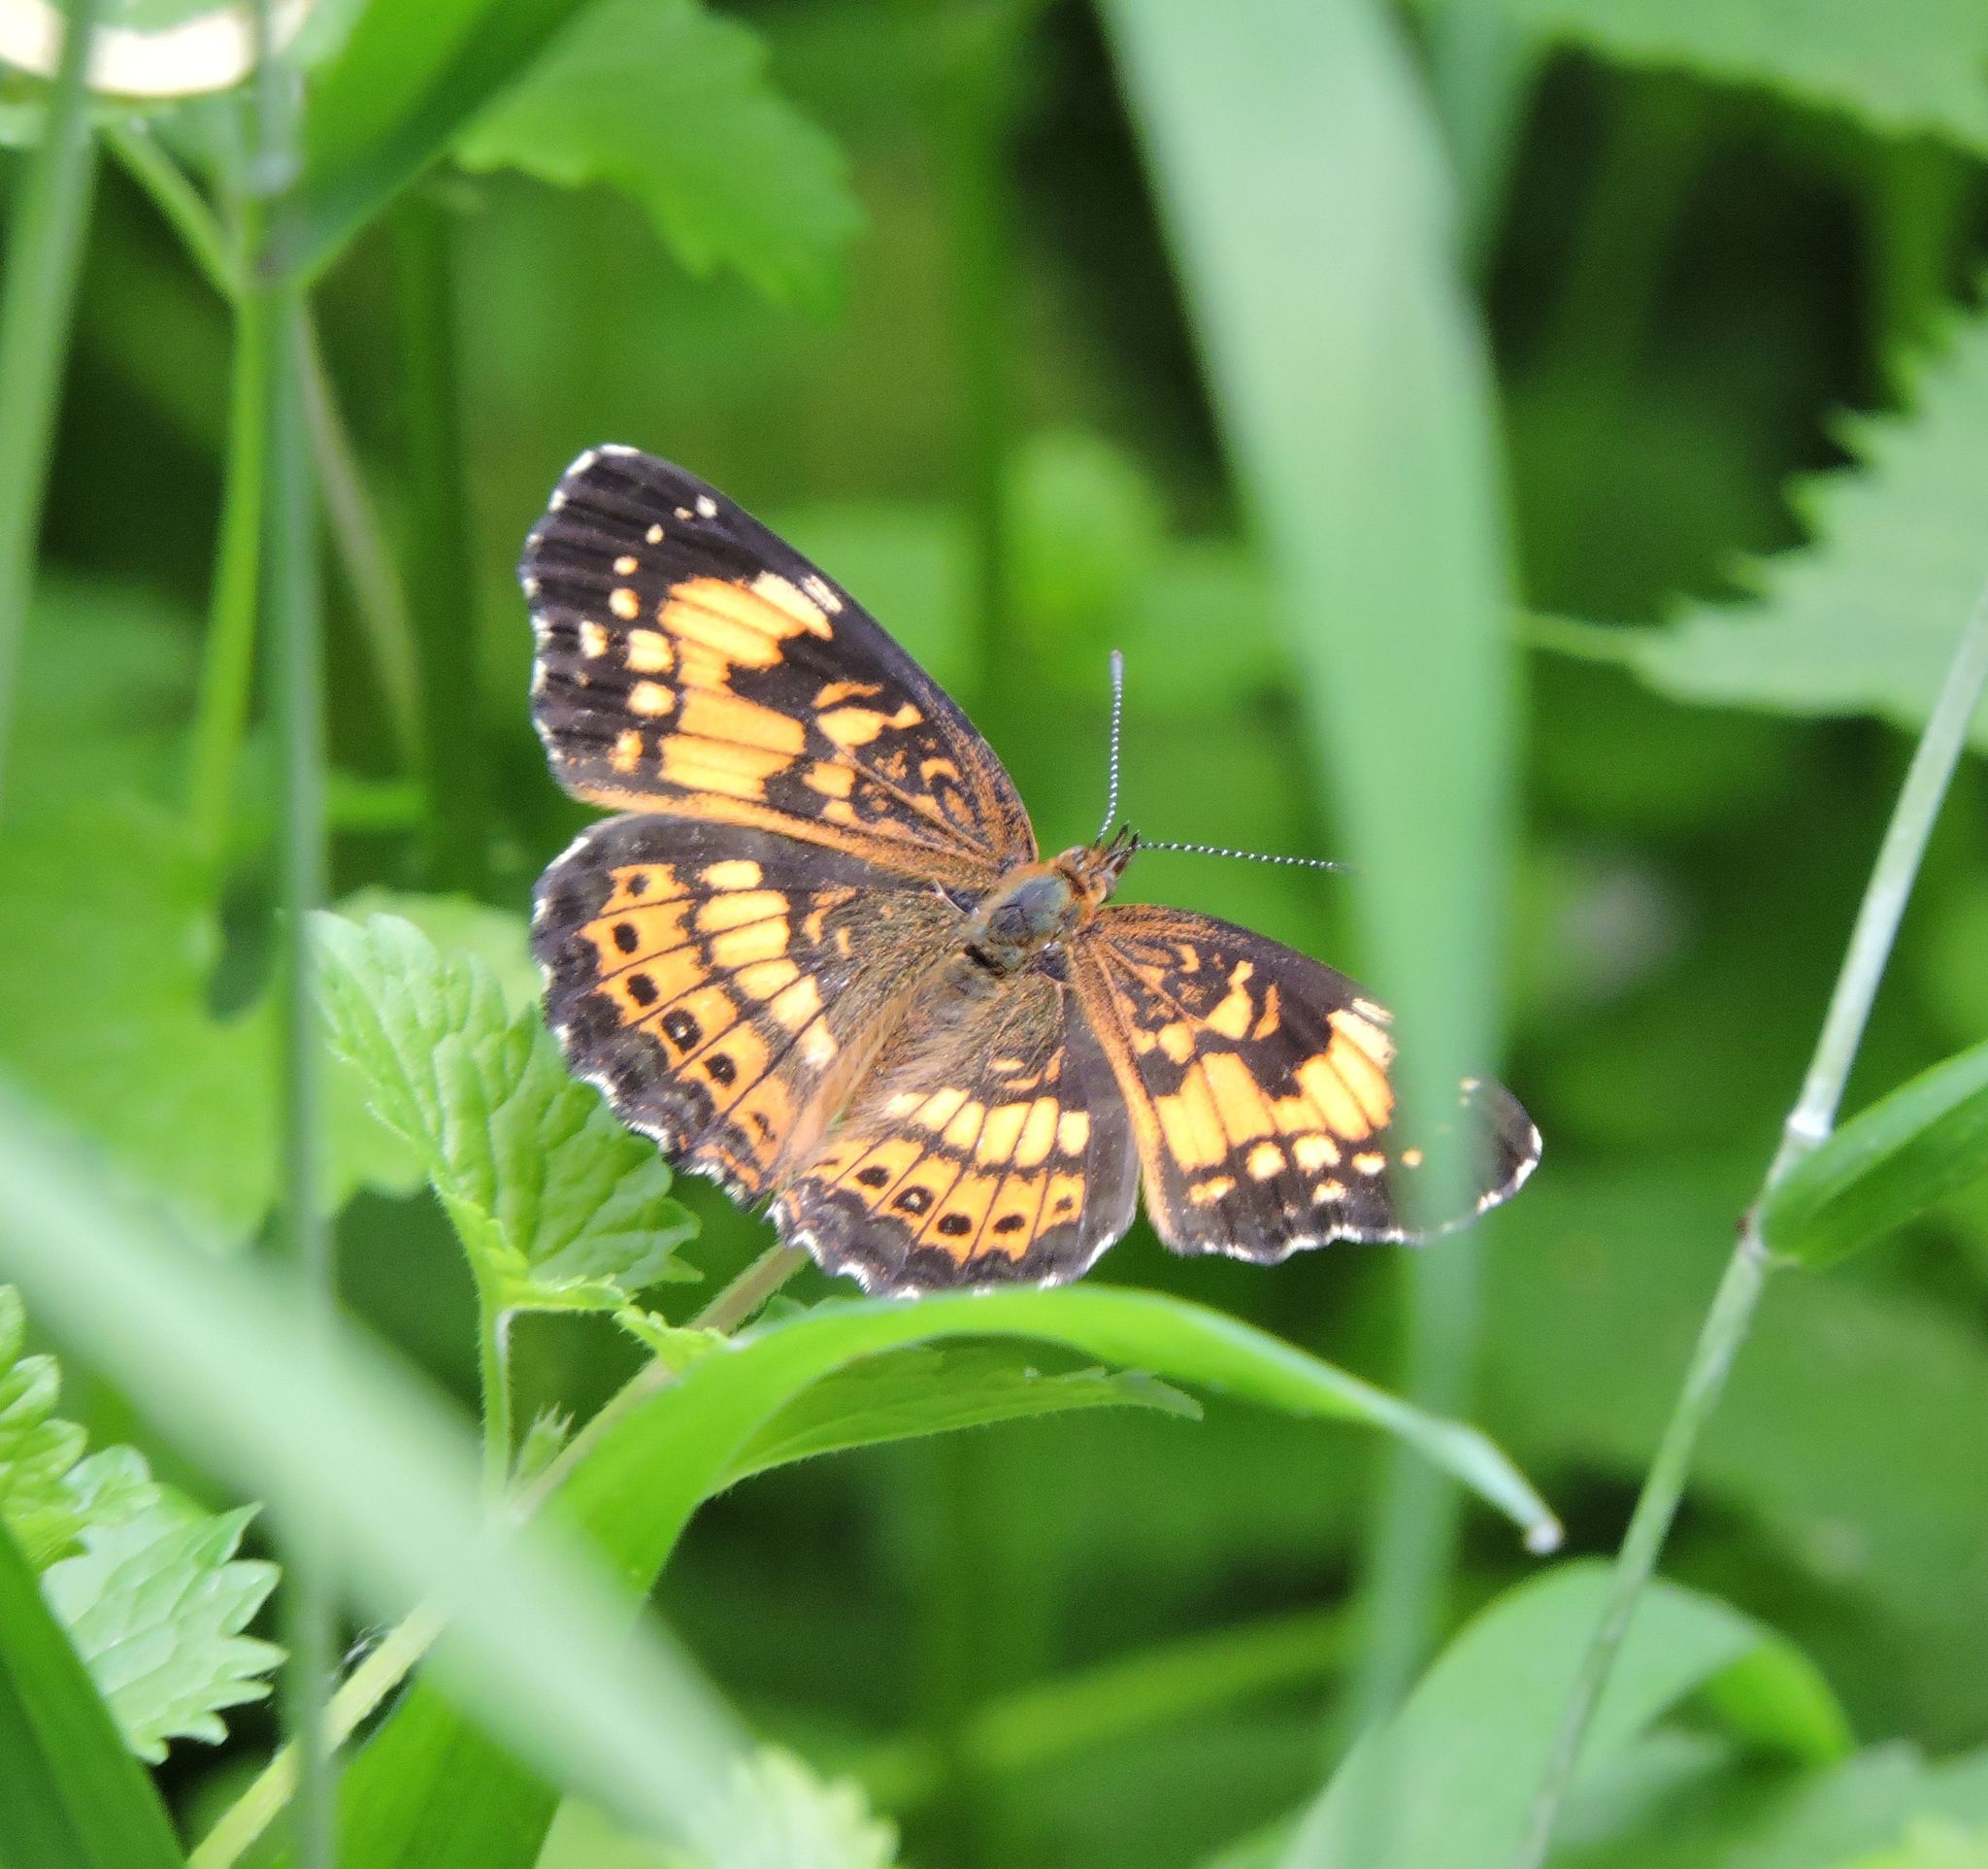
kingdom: Animalia
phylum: Arthropoda
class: Insecta
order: Lepidoptera
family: Nymphalidae
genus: Chlosyne
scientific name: Chlosyne nycteis
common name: Silvery checkerspot
